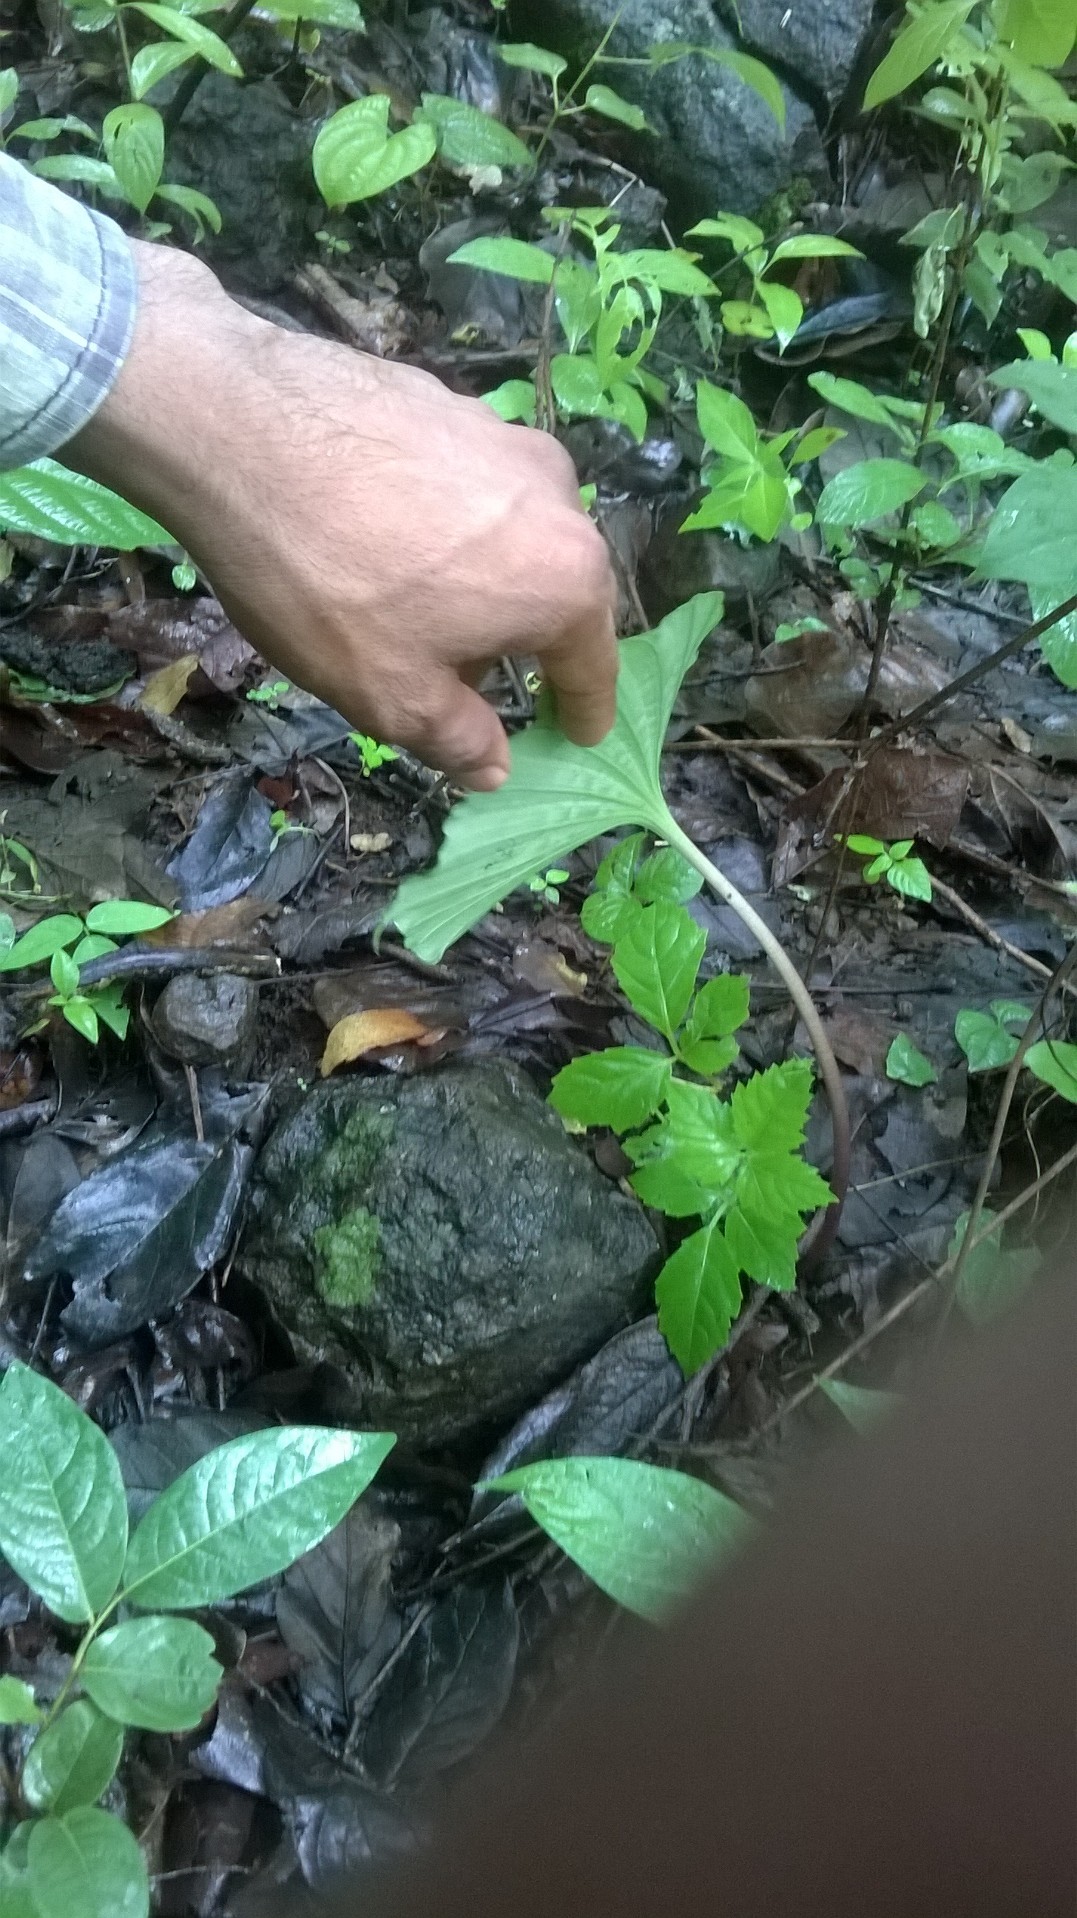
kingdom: Plantae
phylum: Tracheophyta
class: Liliopsida
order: Asparagales
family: Orchidaceae
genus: Nervilia
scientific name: Nervilia concolor
